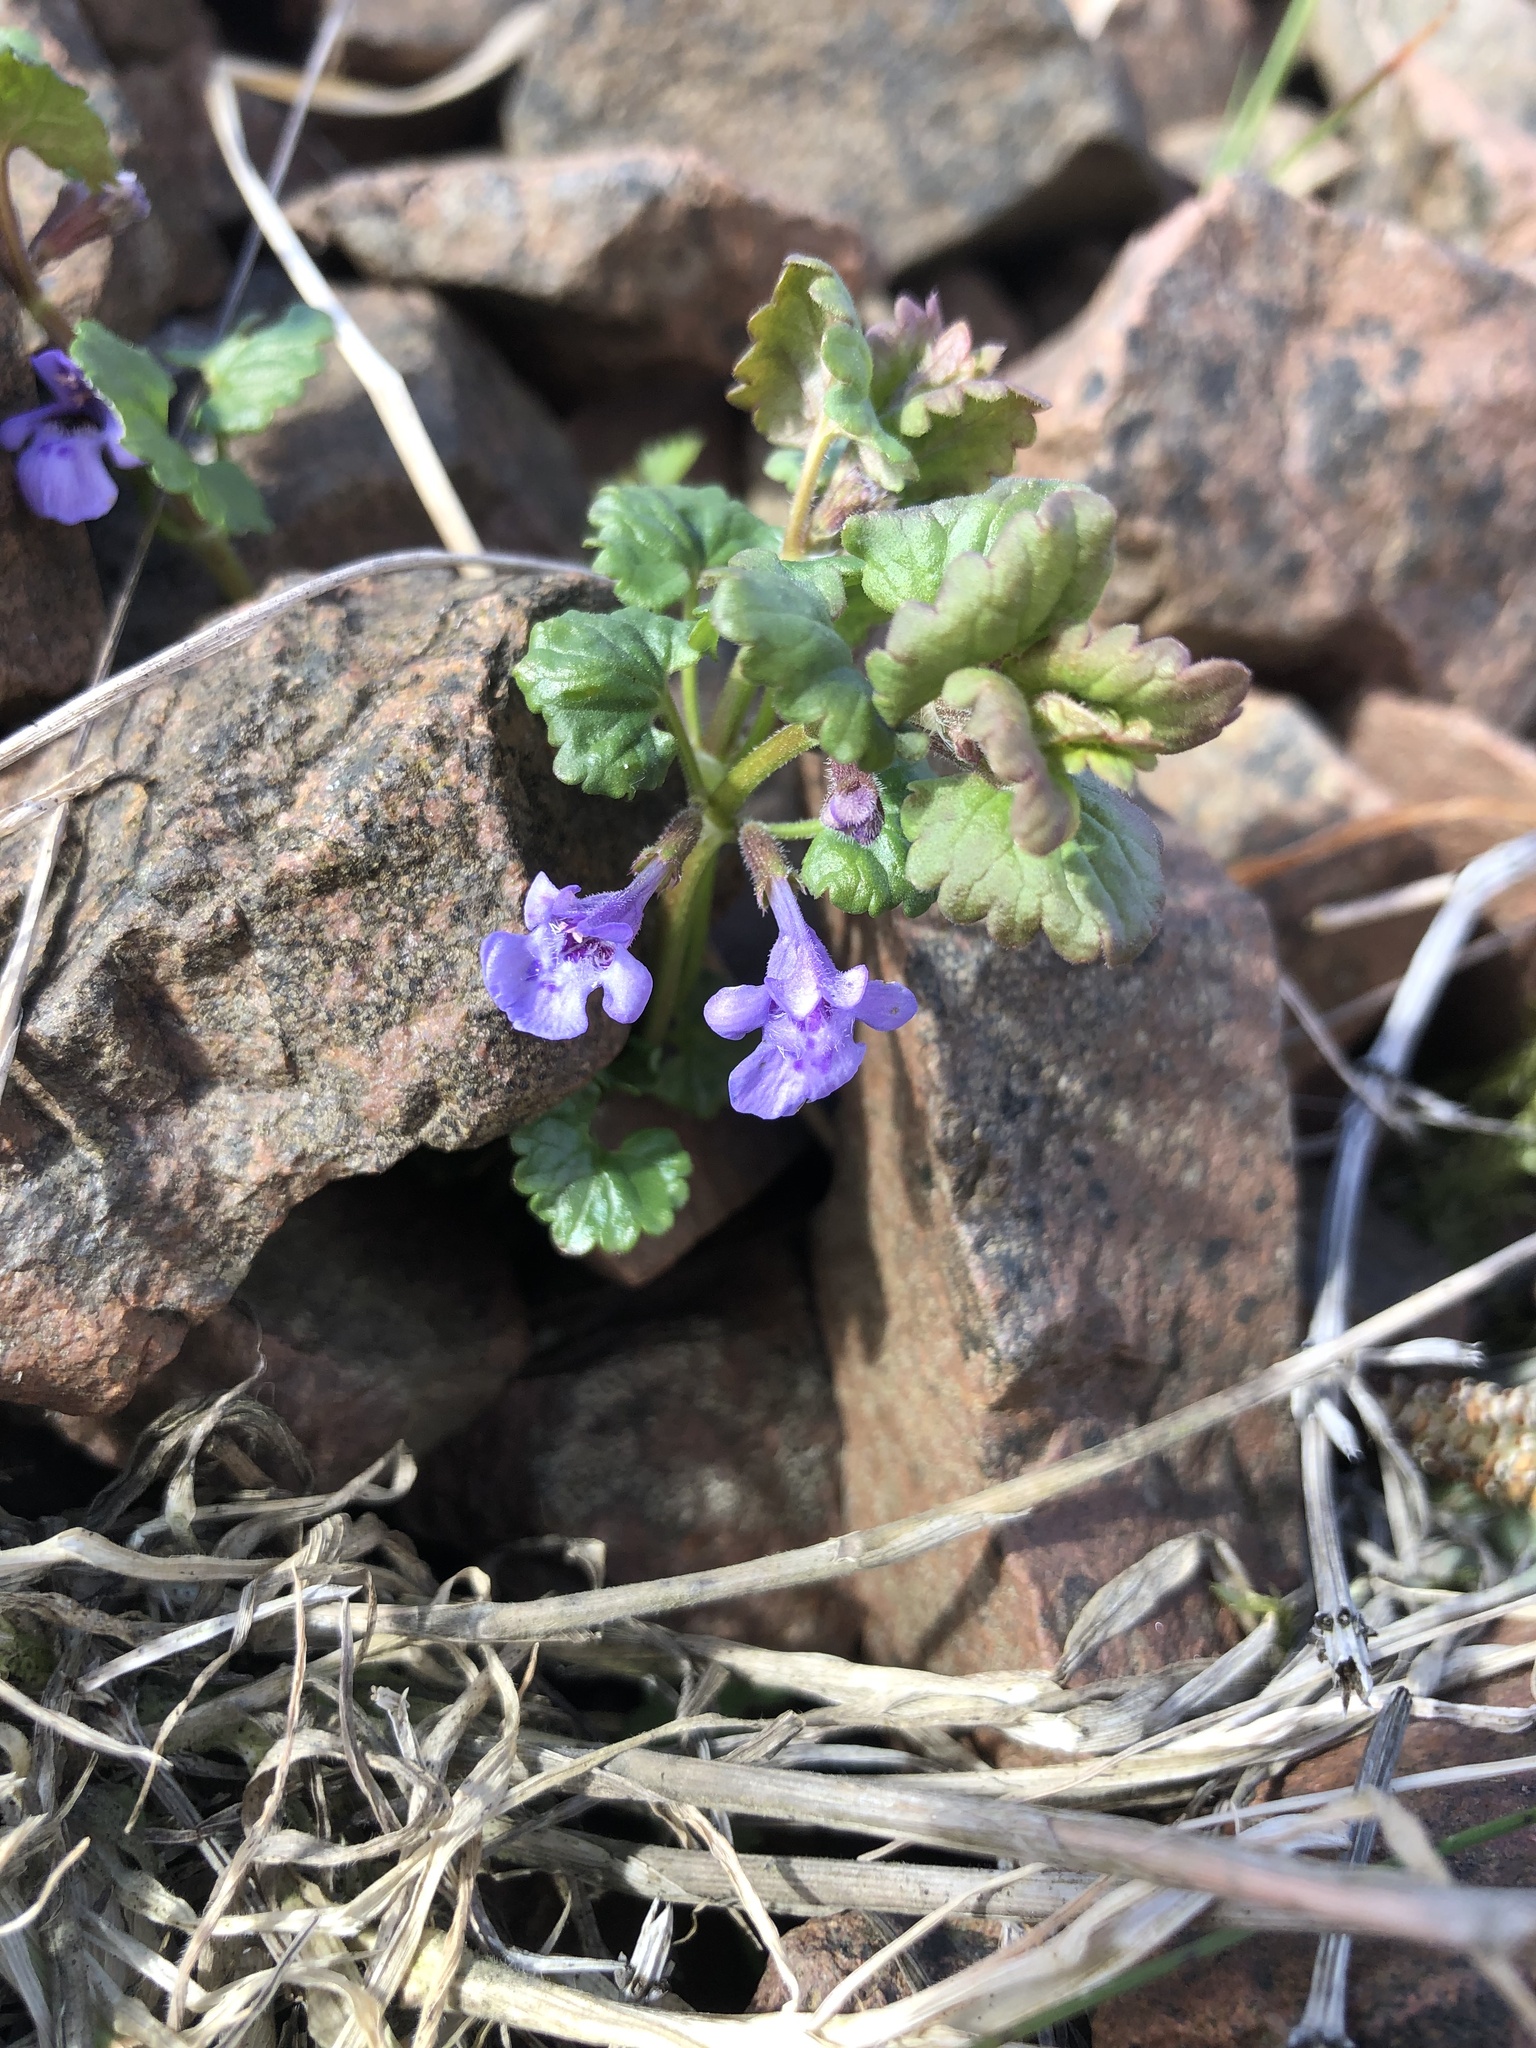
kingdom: Plantae
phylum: Tracheophyta
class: Magnoliopsida
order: Lamiales
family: Lamiaceae
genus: Glechoma
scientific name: Glechoma hederacea
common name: Ground ivy
